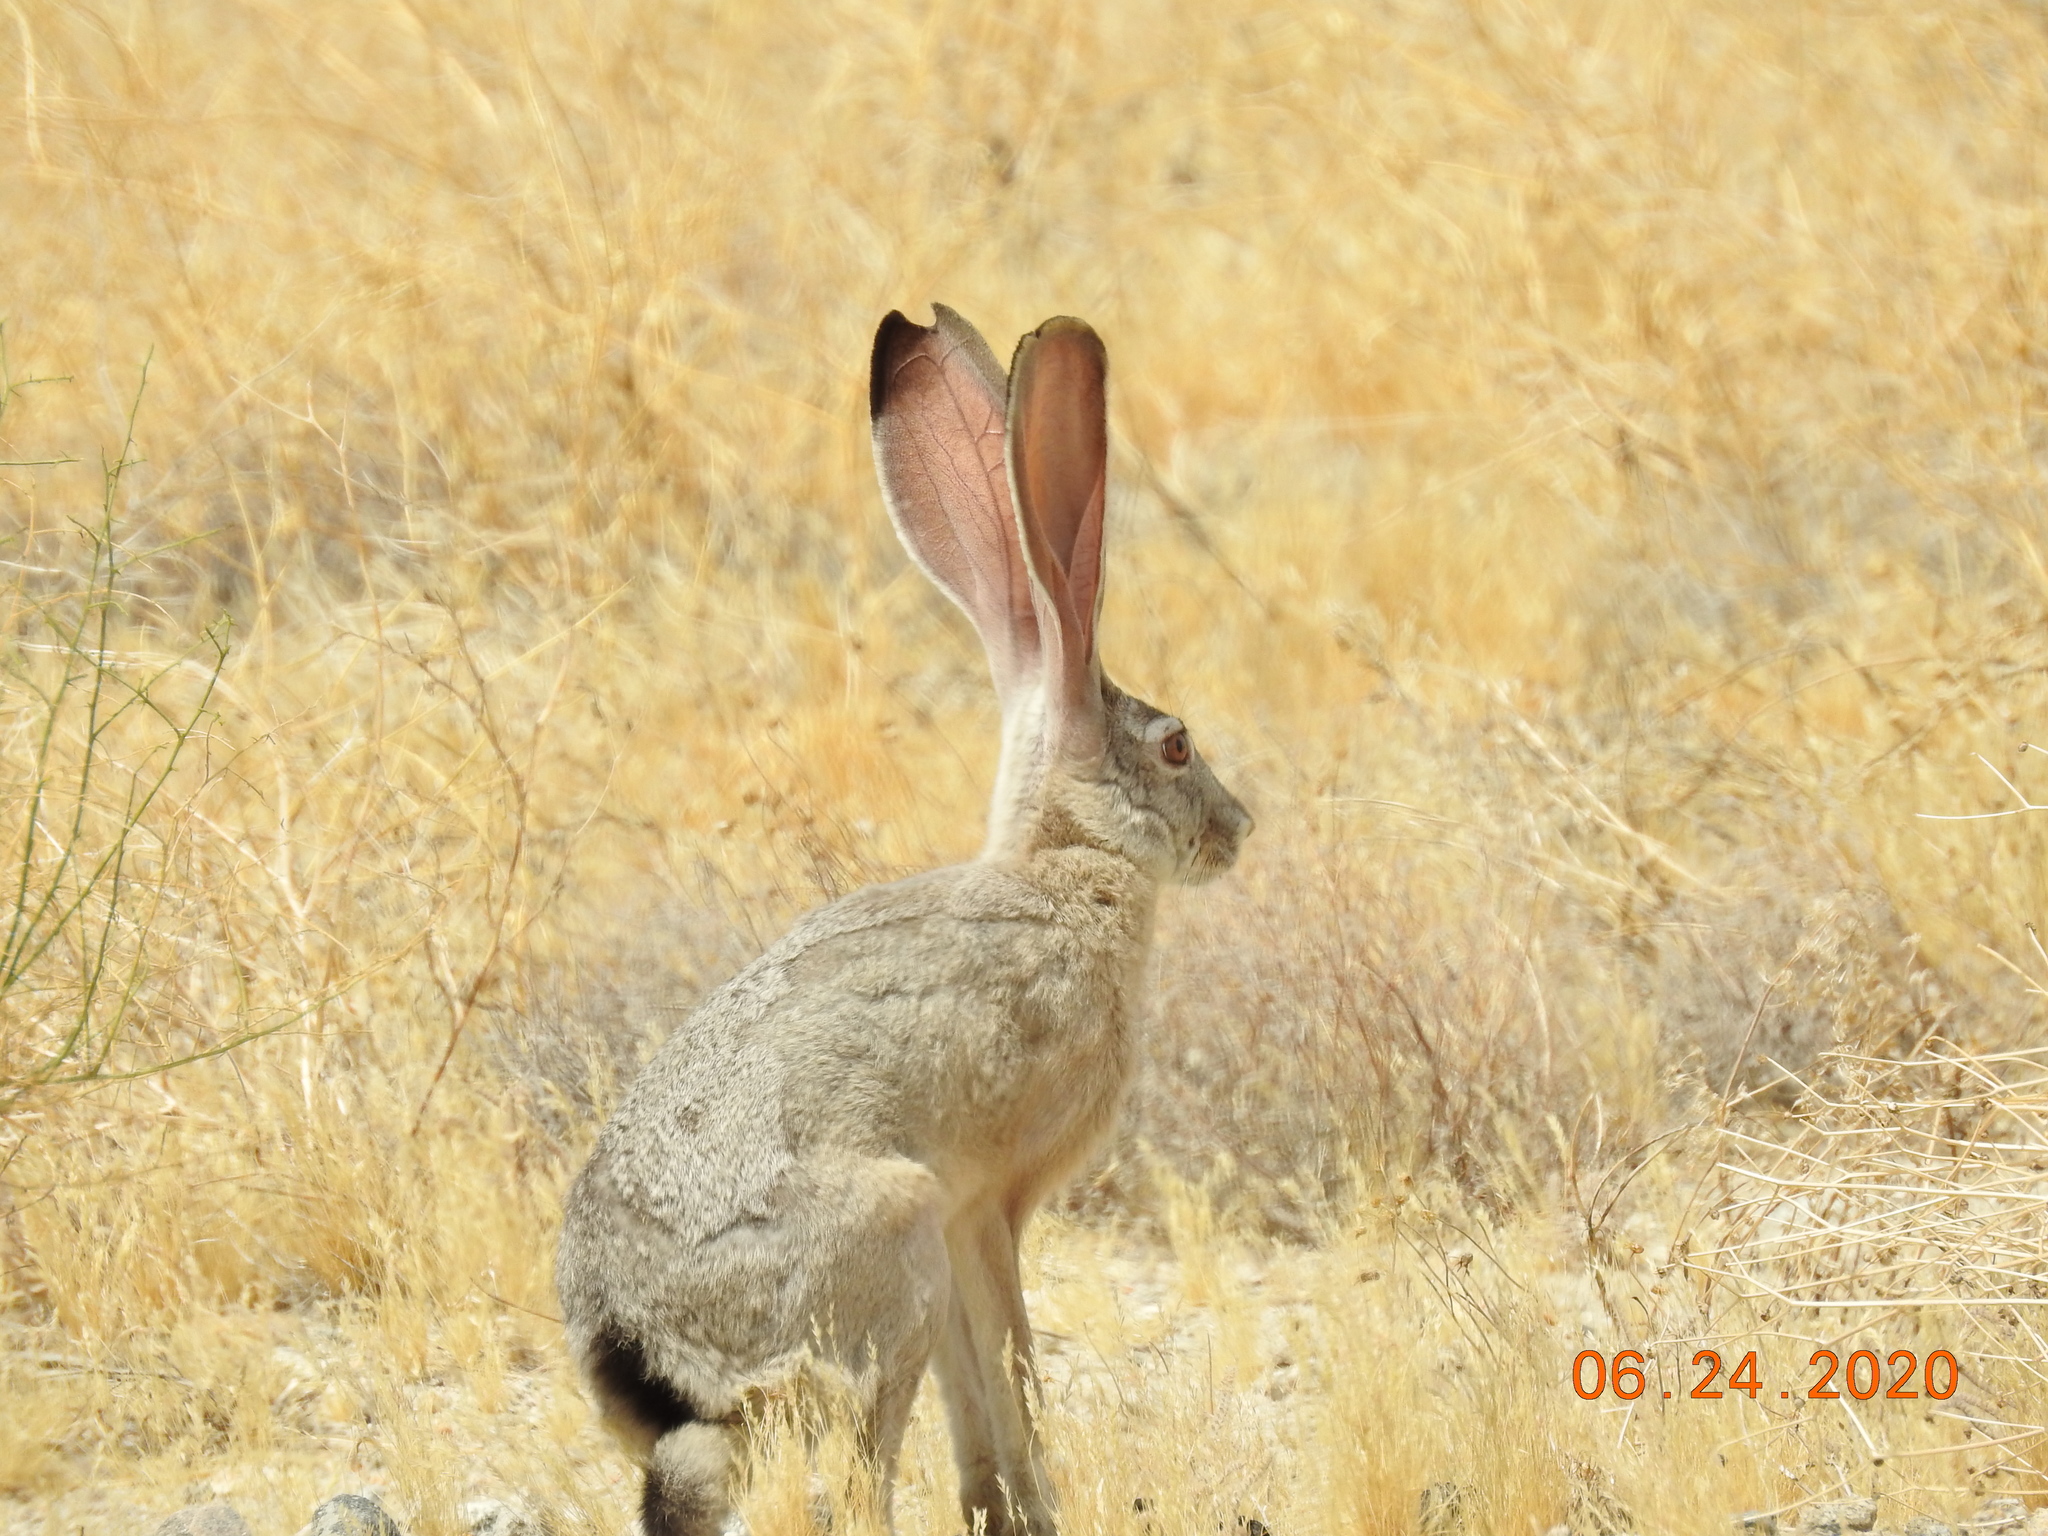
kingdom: Animalia
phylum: Chordata
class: Mammalia
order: Lagomorpha
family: Leporidae
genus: Lepus
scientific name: Lepus californicus
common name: Black-tailed jackrabbit
